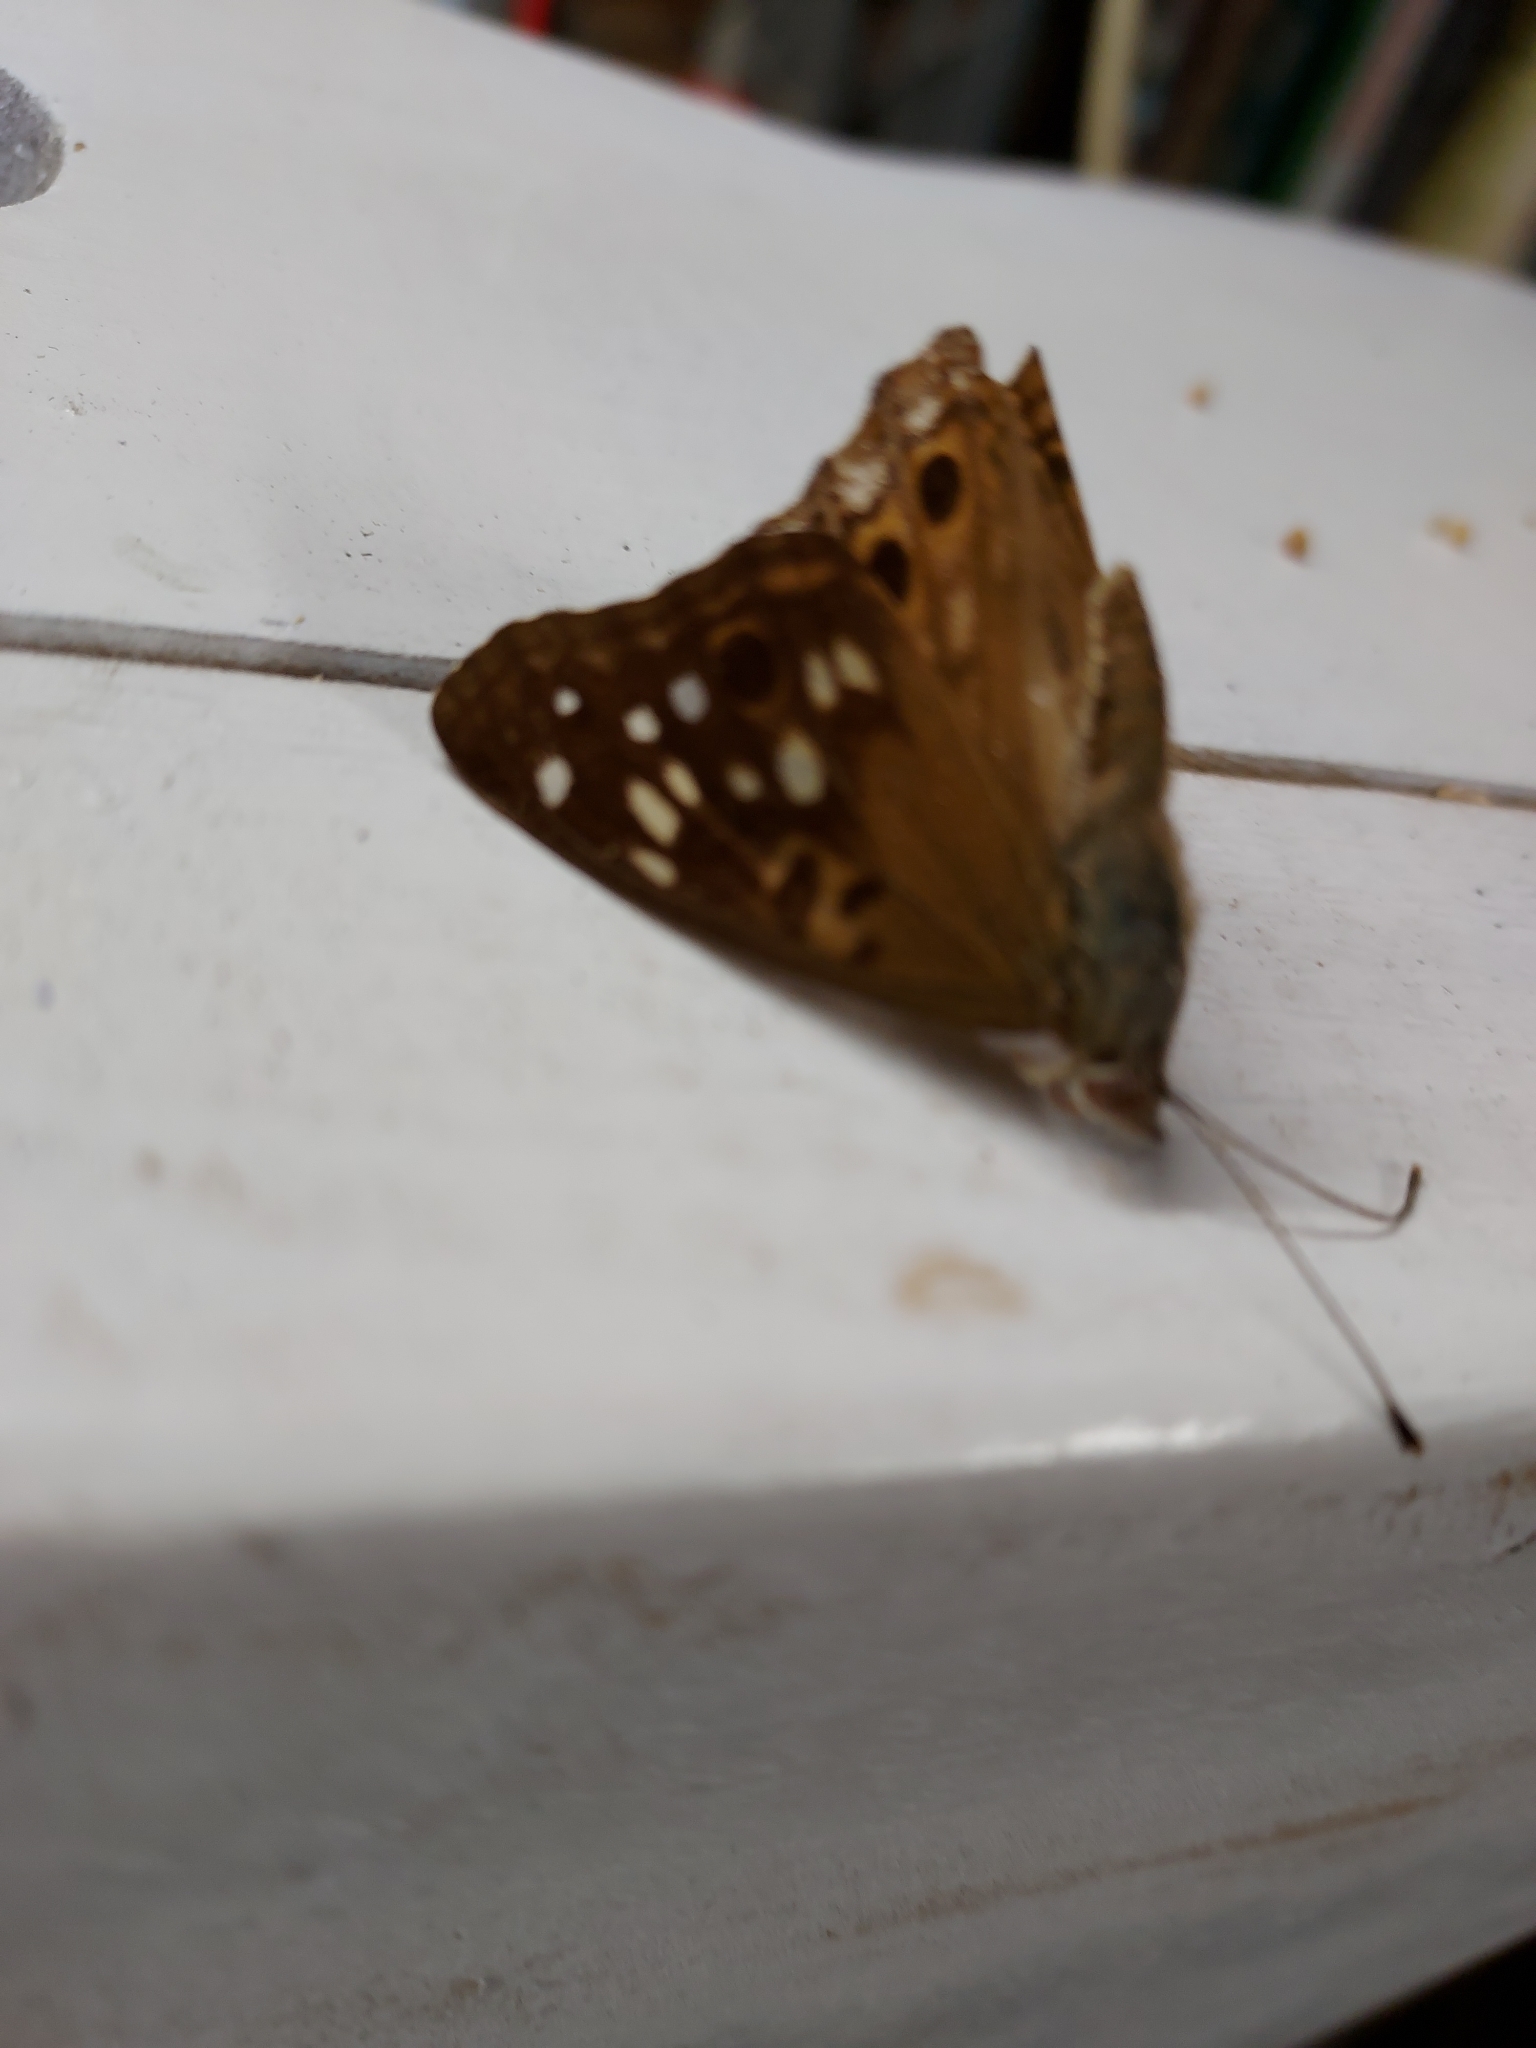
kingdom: Animalia
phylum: Arthropoda
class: Insecta
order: Lepidoptera
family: Nymphalidae
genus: Asterocampa
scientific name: Asterocampa celtis
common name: Hackberry emperor
